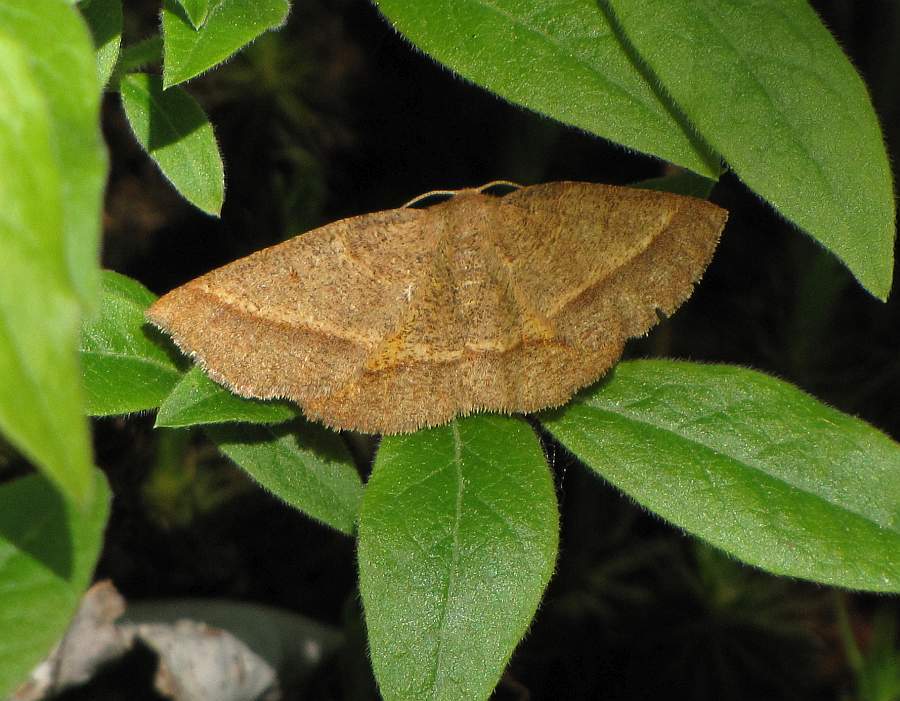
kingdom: Animalia
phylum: Arthropoda
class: Insecta
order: Lepidoptera
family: Geometridae
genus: Metarranthis
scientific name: Metarranthis obfirmaria
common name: Yellow-washed metarranthis
